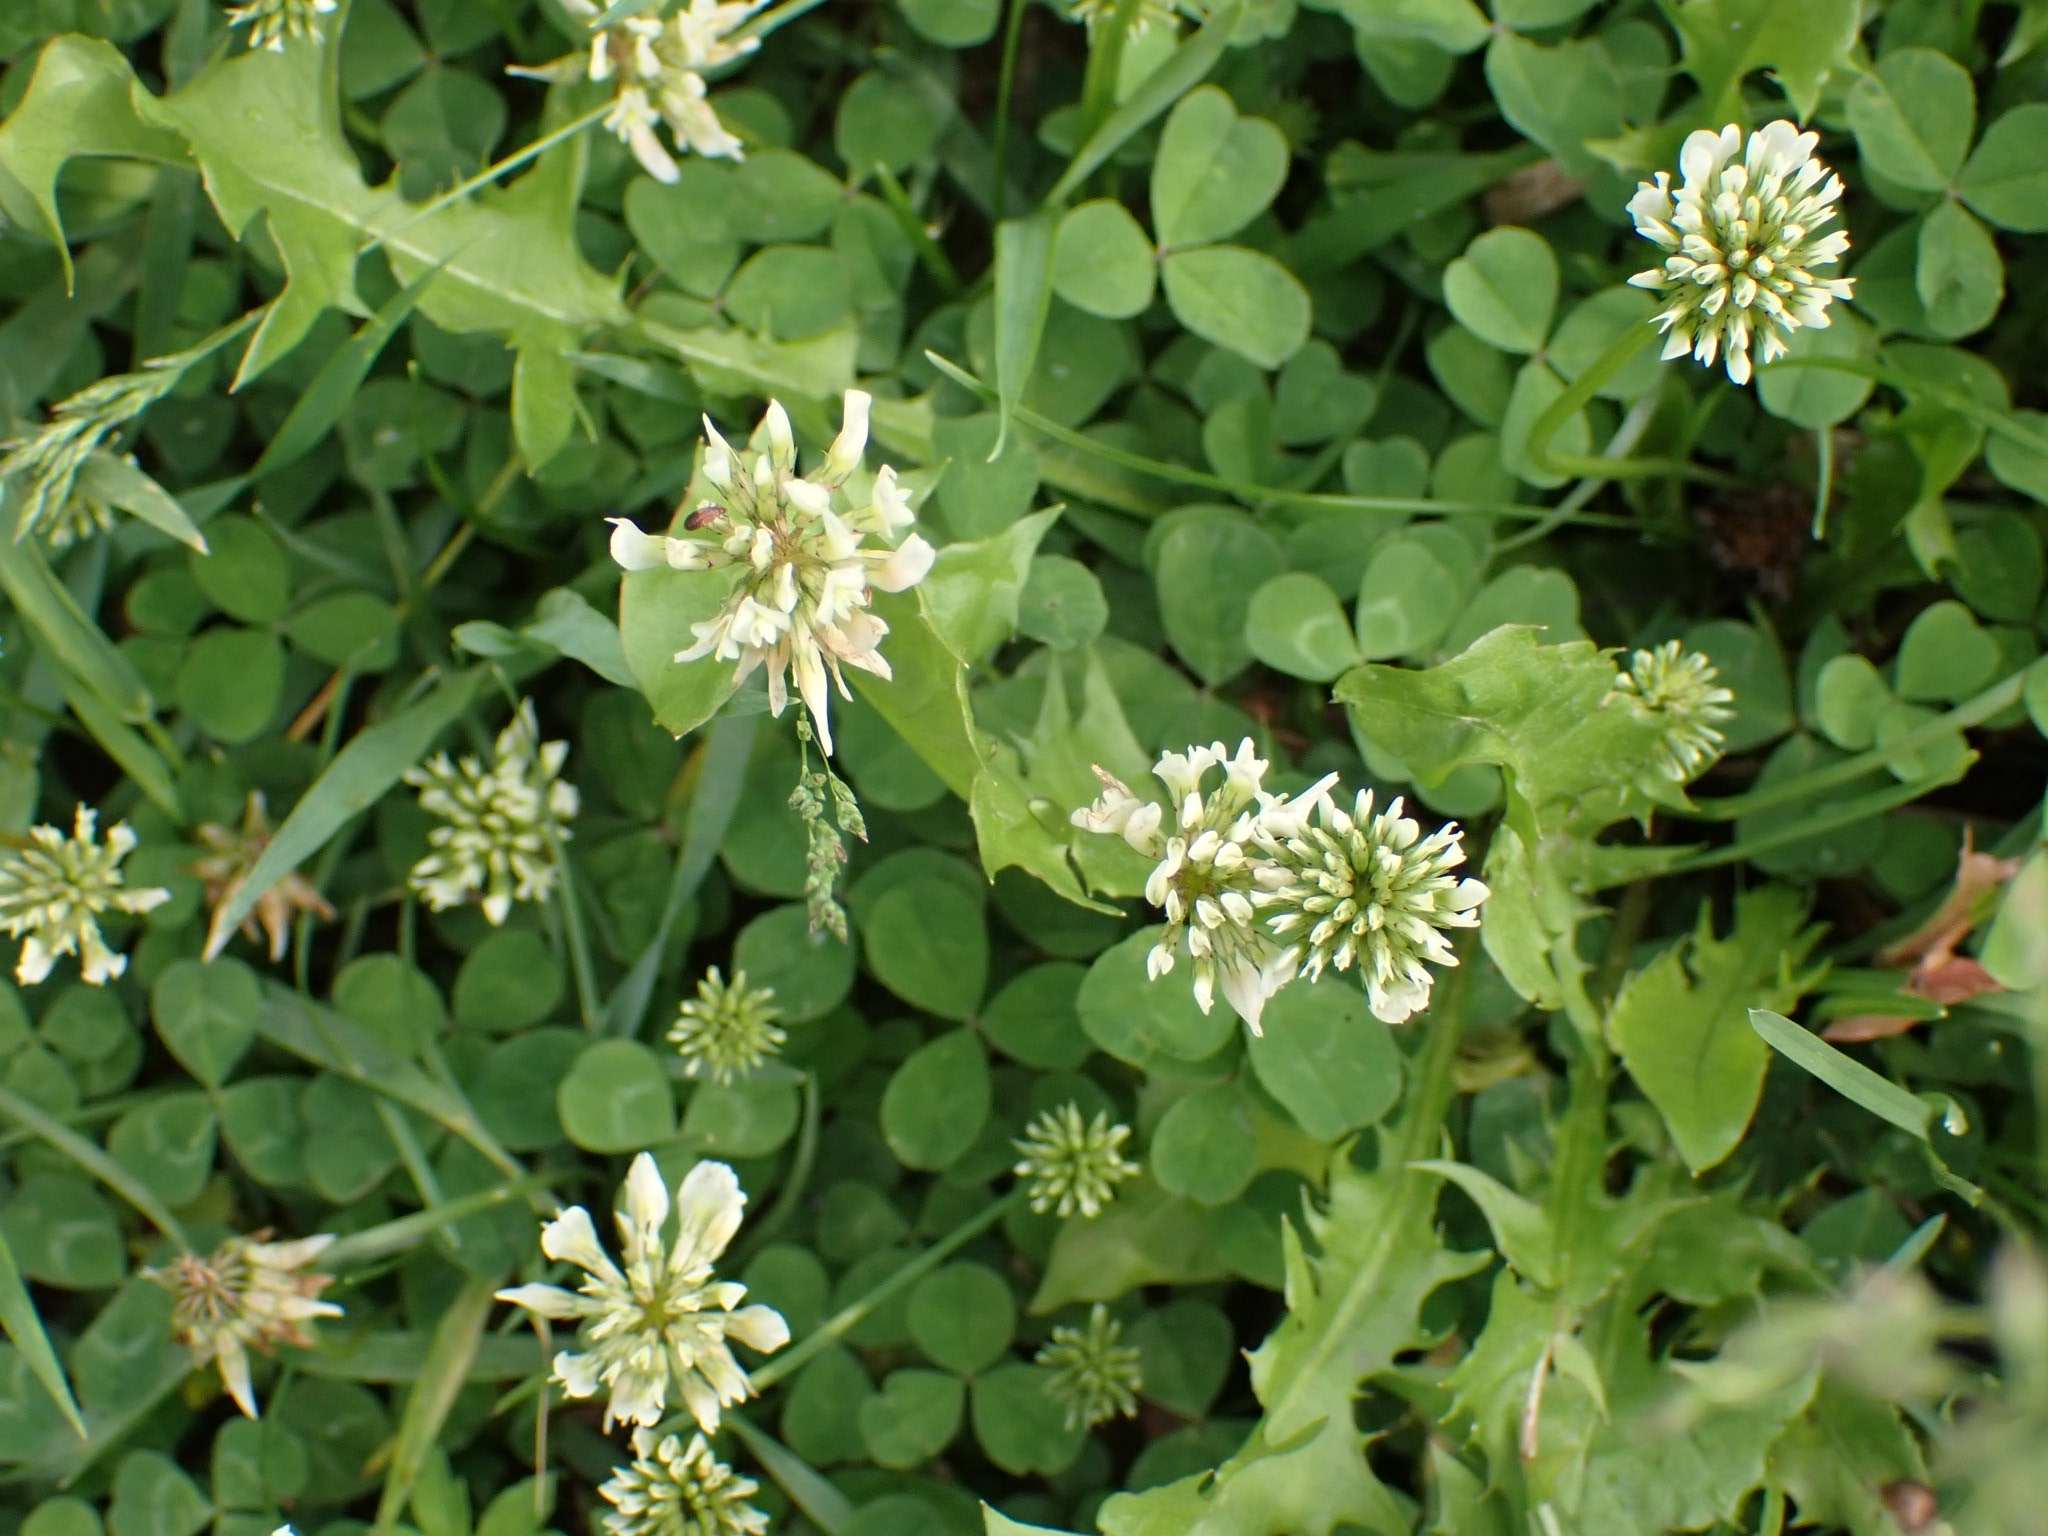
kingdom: Plantae
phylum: Tracheophyta
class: Magnoliopsida
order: Fabales
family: Fabaceae
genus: Trifolium
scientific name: Trifolium repens
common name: White clover
